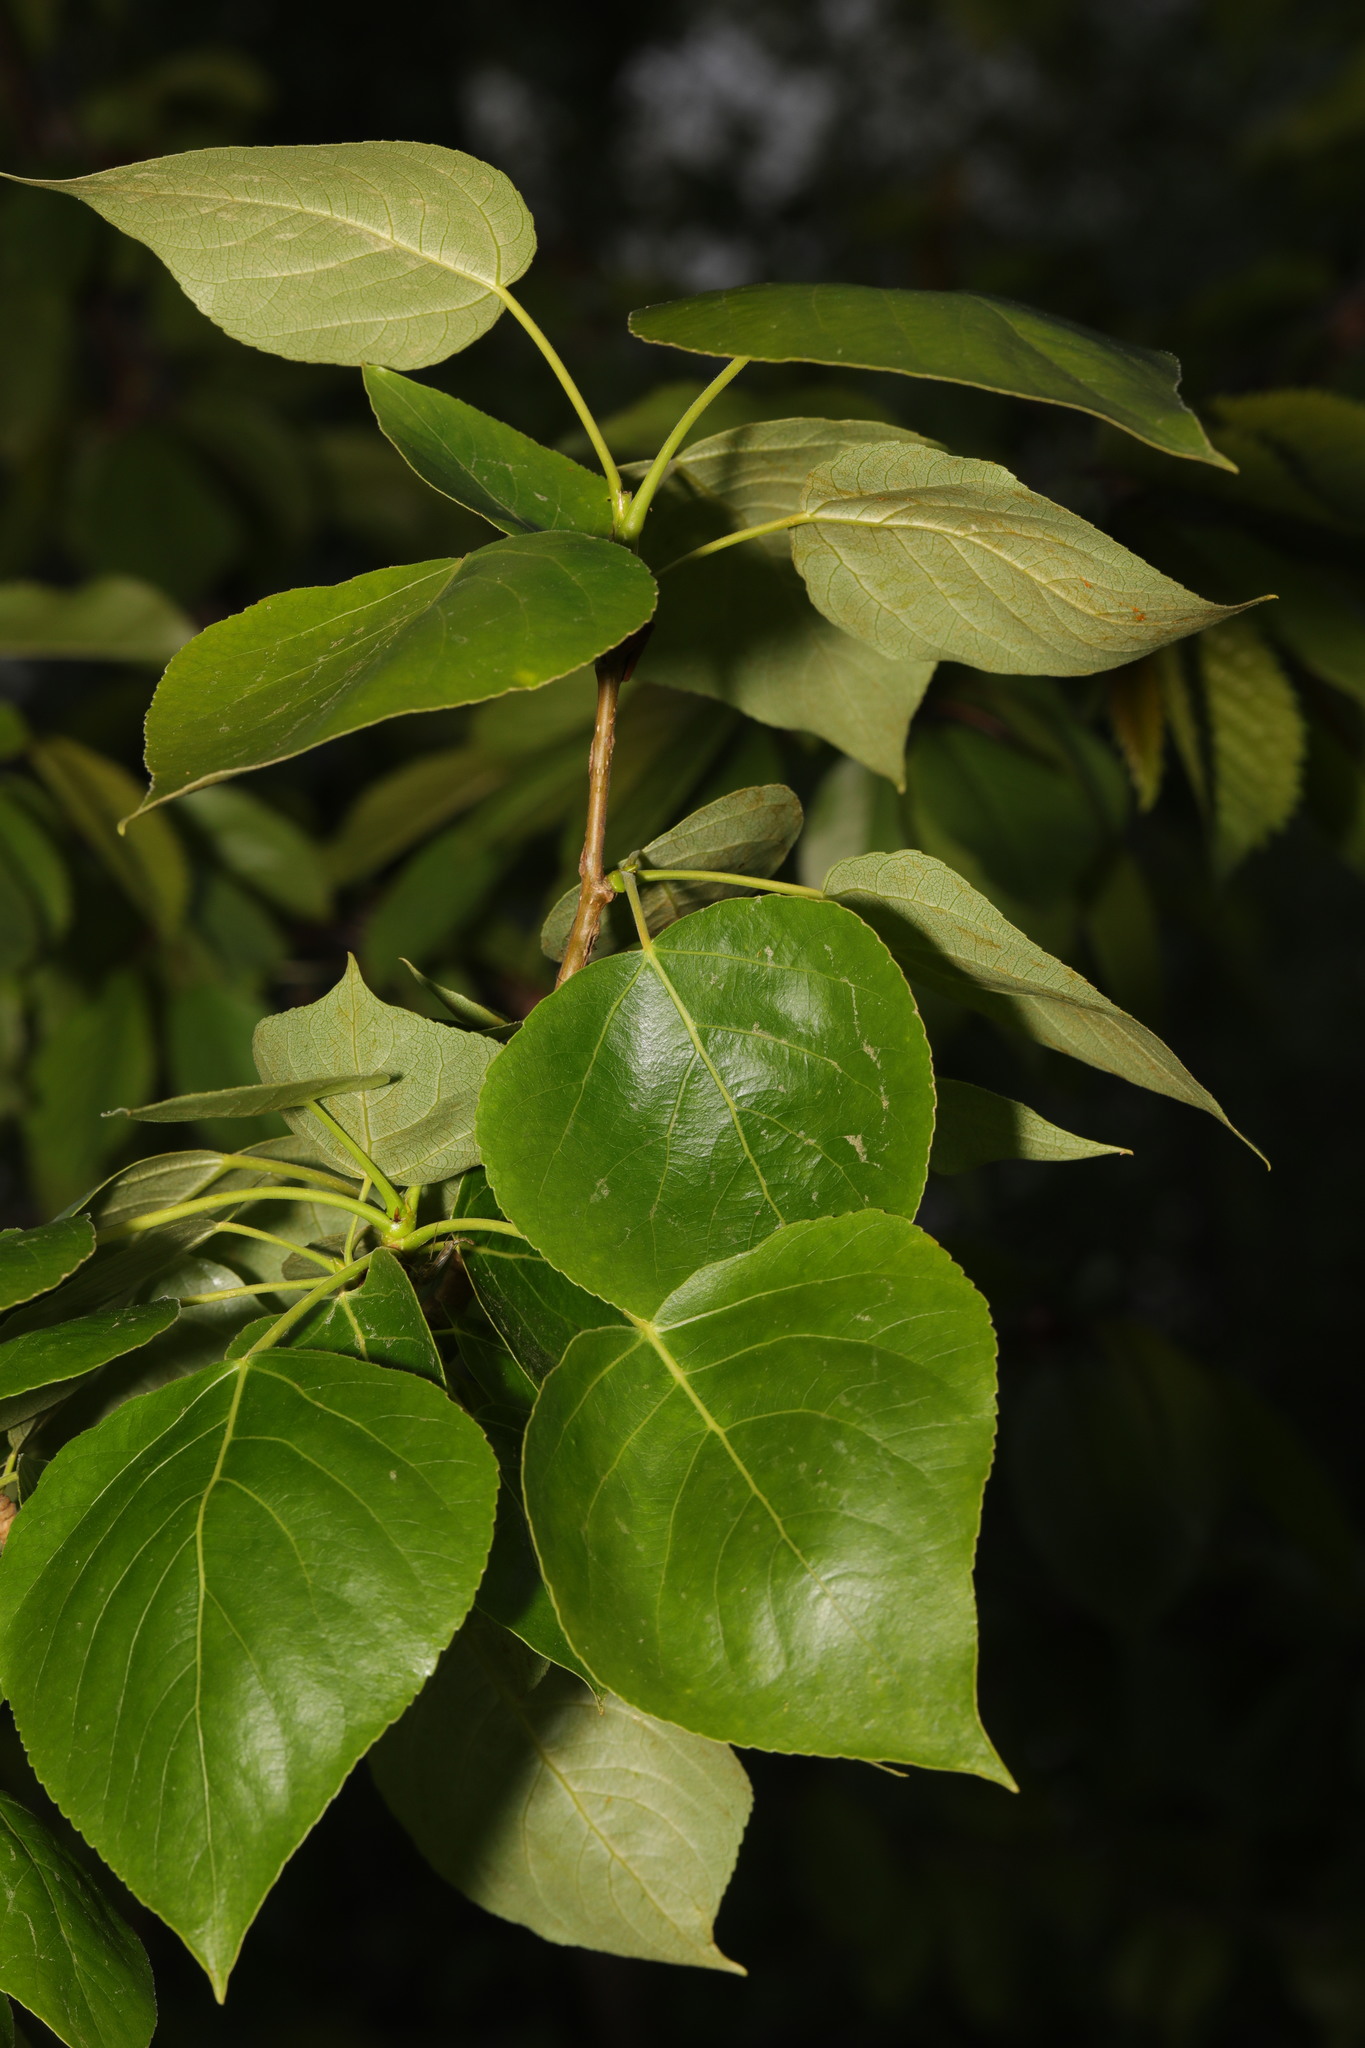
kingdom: Plantae
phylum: Tracheophyta
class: Magnoliopsida
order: Malpighiales
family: Salicaceae
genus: Populus
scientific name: Populus nigra
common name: Black poplar
